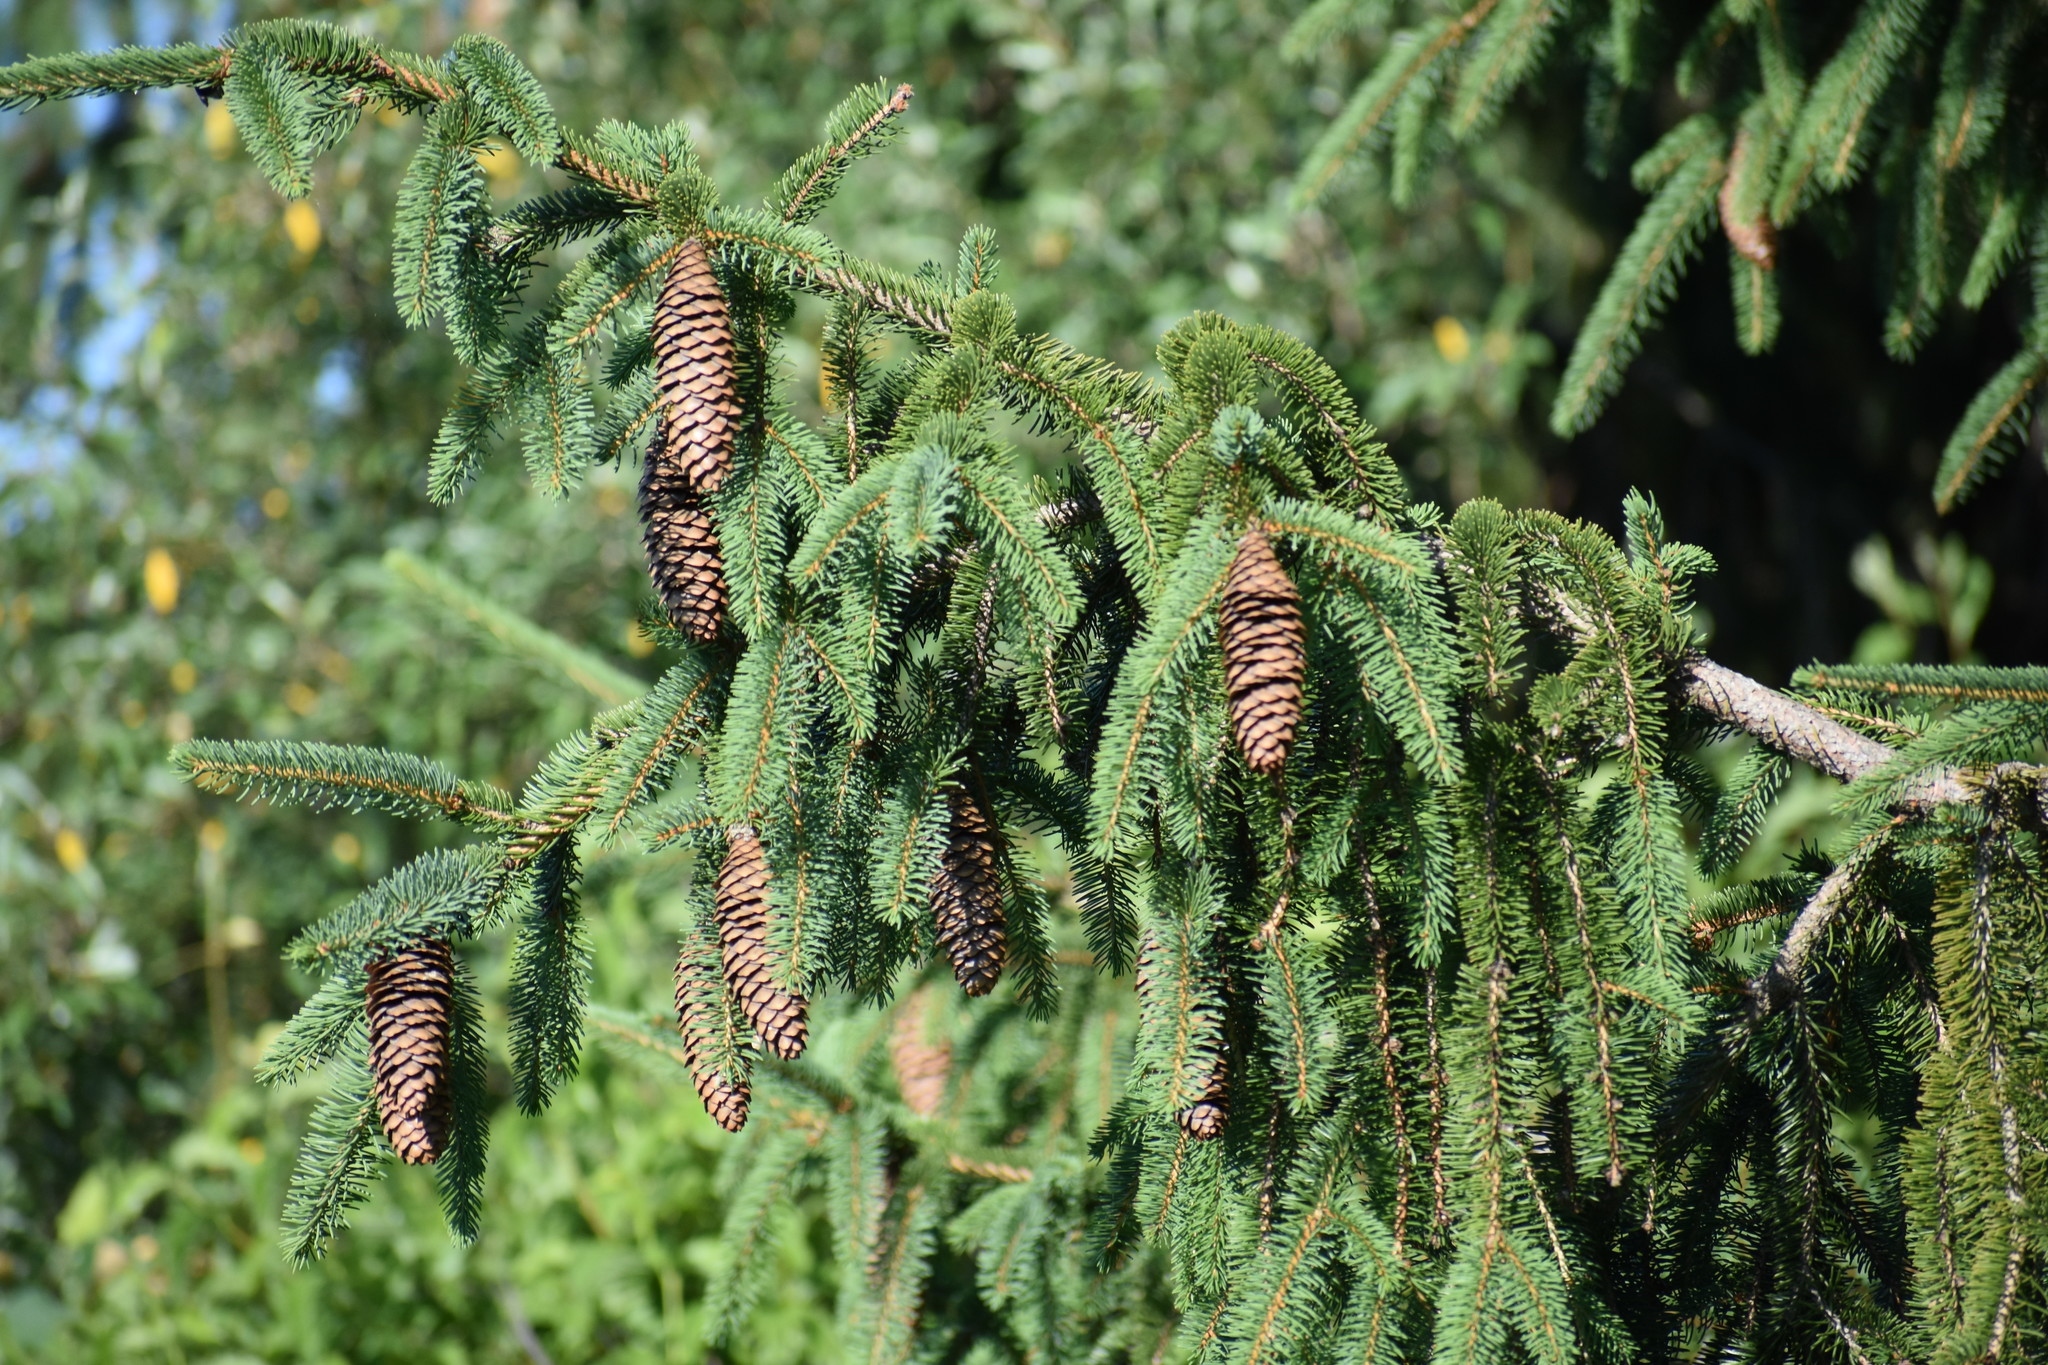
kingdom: Plantae
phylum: Tracheophyta
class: Pinopsida
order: Pinales
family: Pinaceae
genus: Picea
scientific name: Picea abies
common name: Norway spruce
